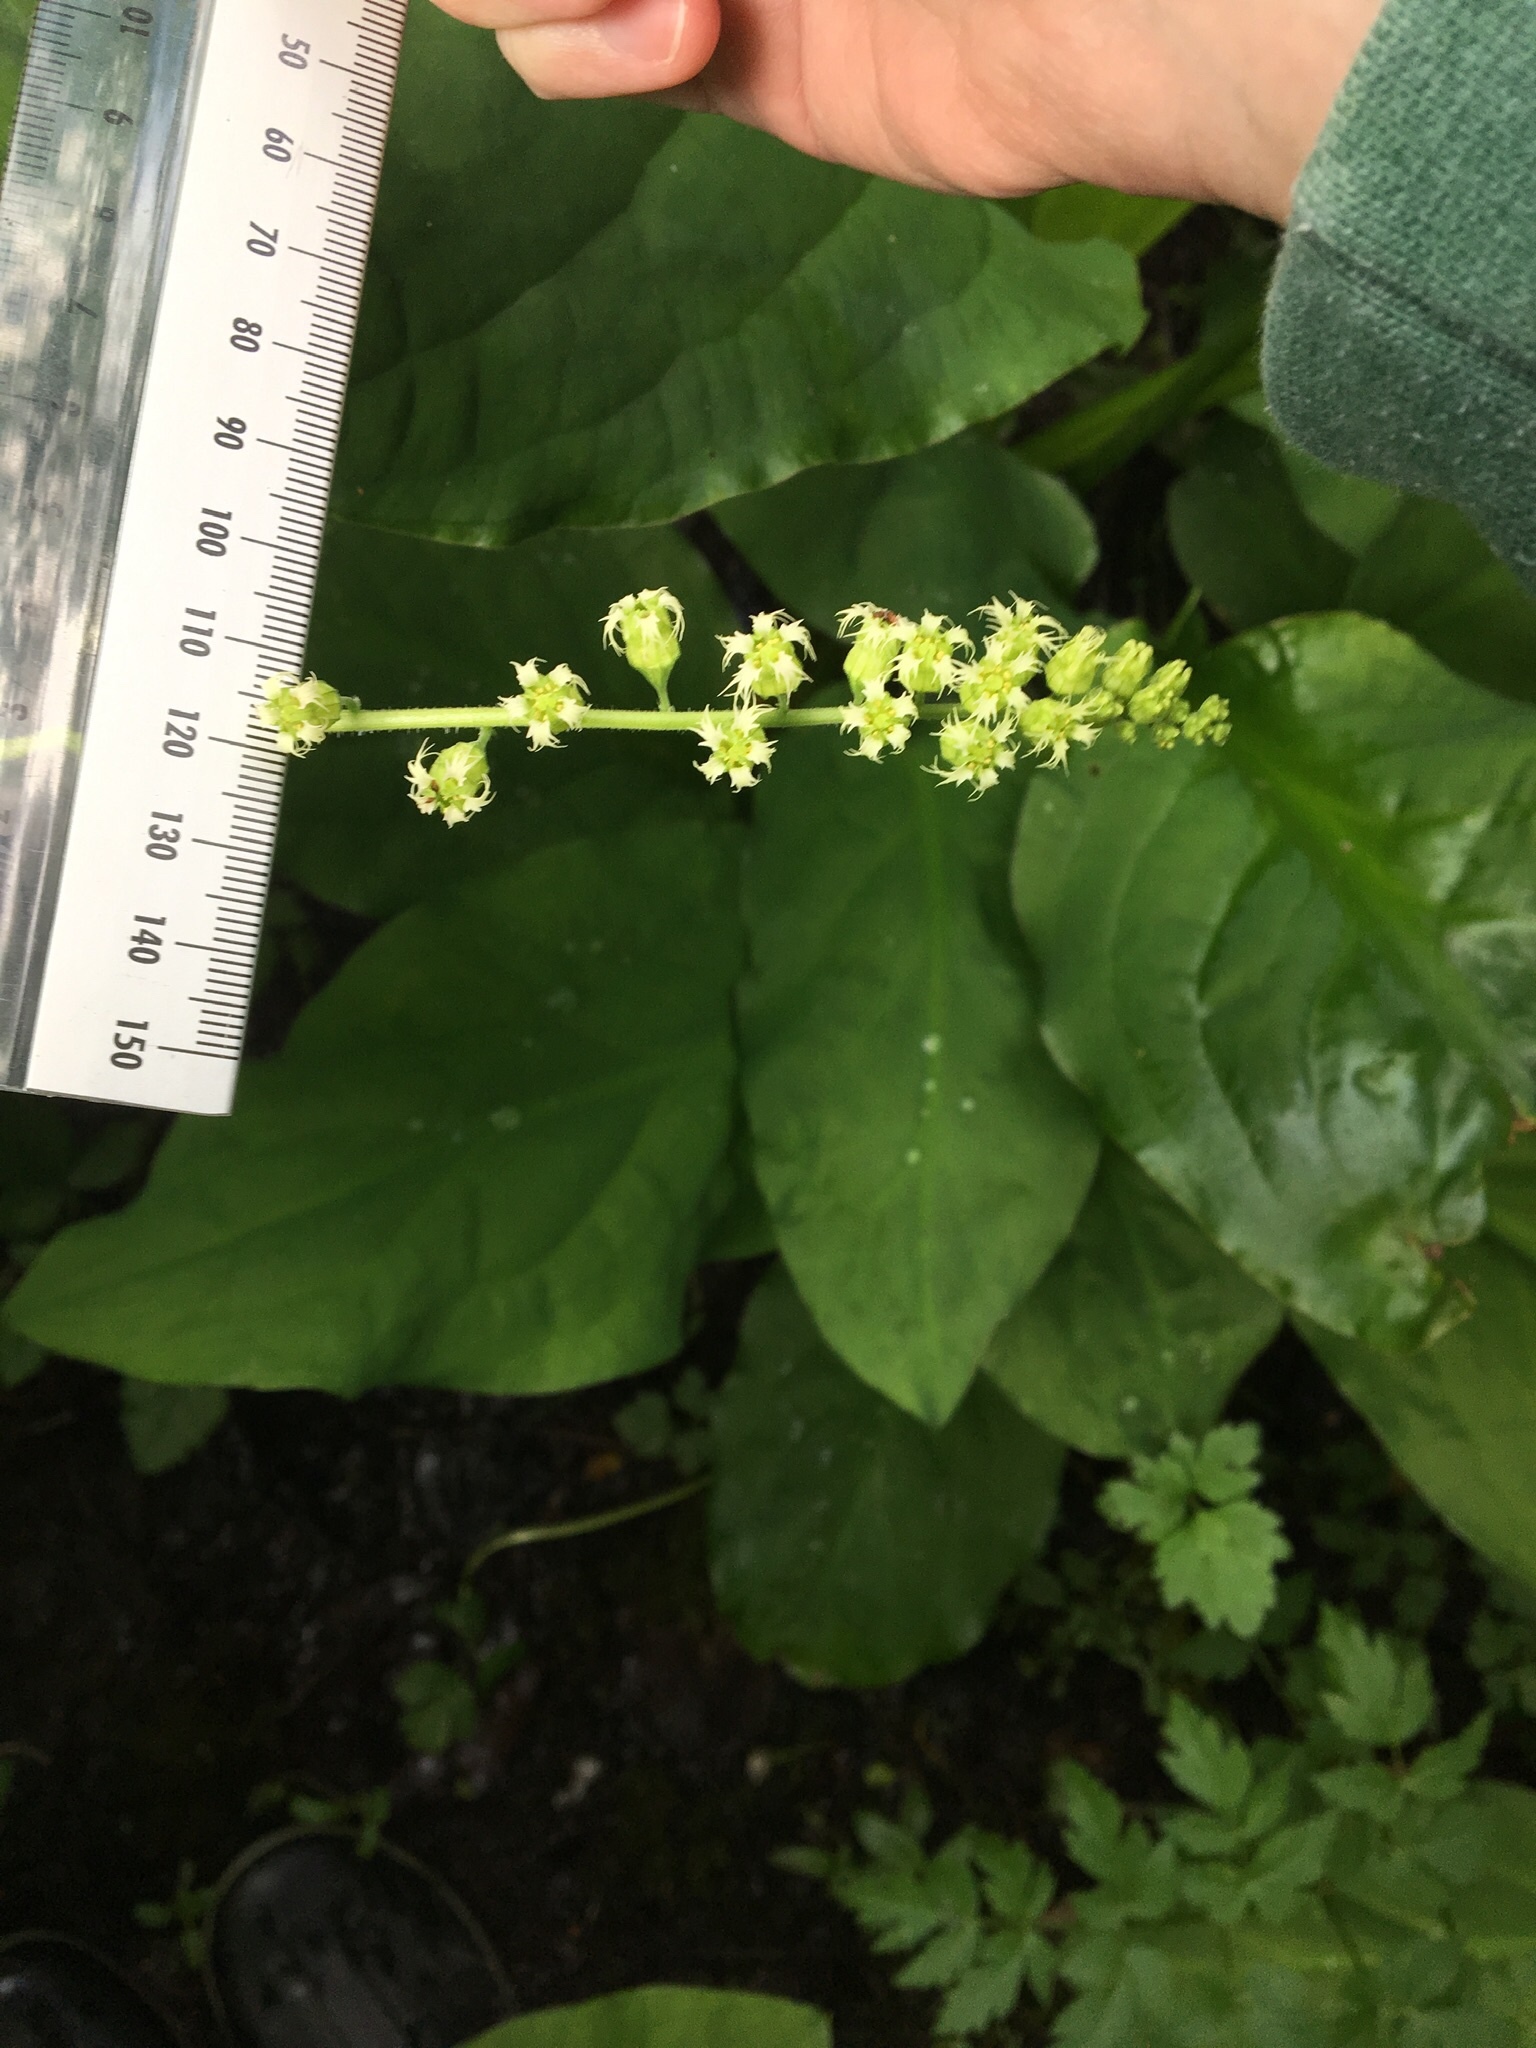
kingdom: Plantae
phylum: Tracheophyta
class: Magnoliopsida
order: Saxifragales
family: Saxifragaceae
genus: Tellima
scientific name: Tellima grandiflora
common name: Fringecups
